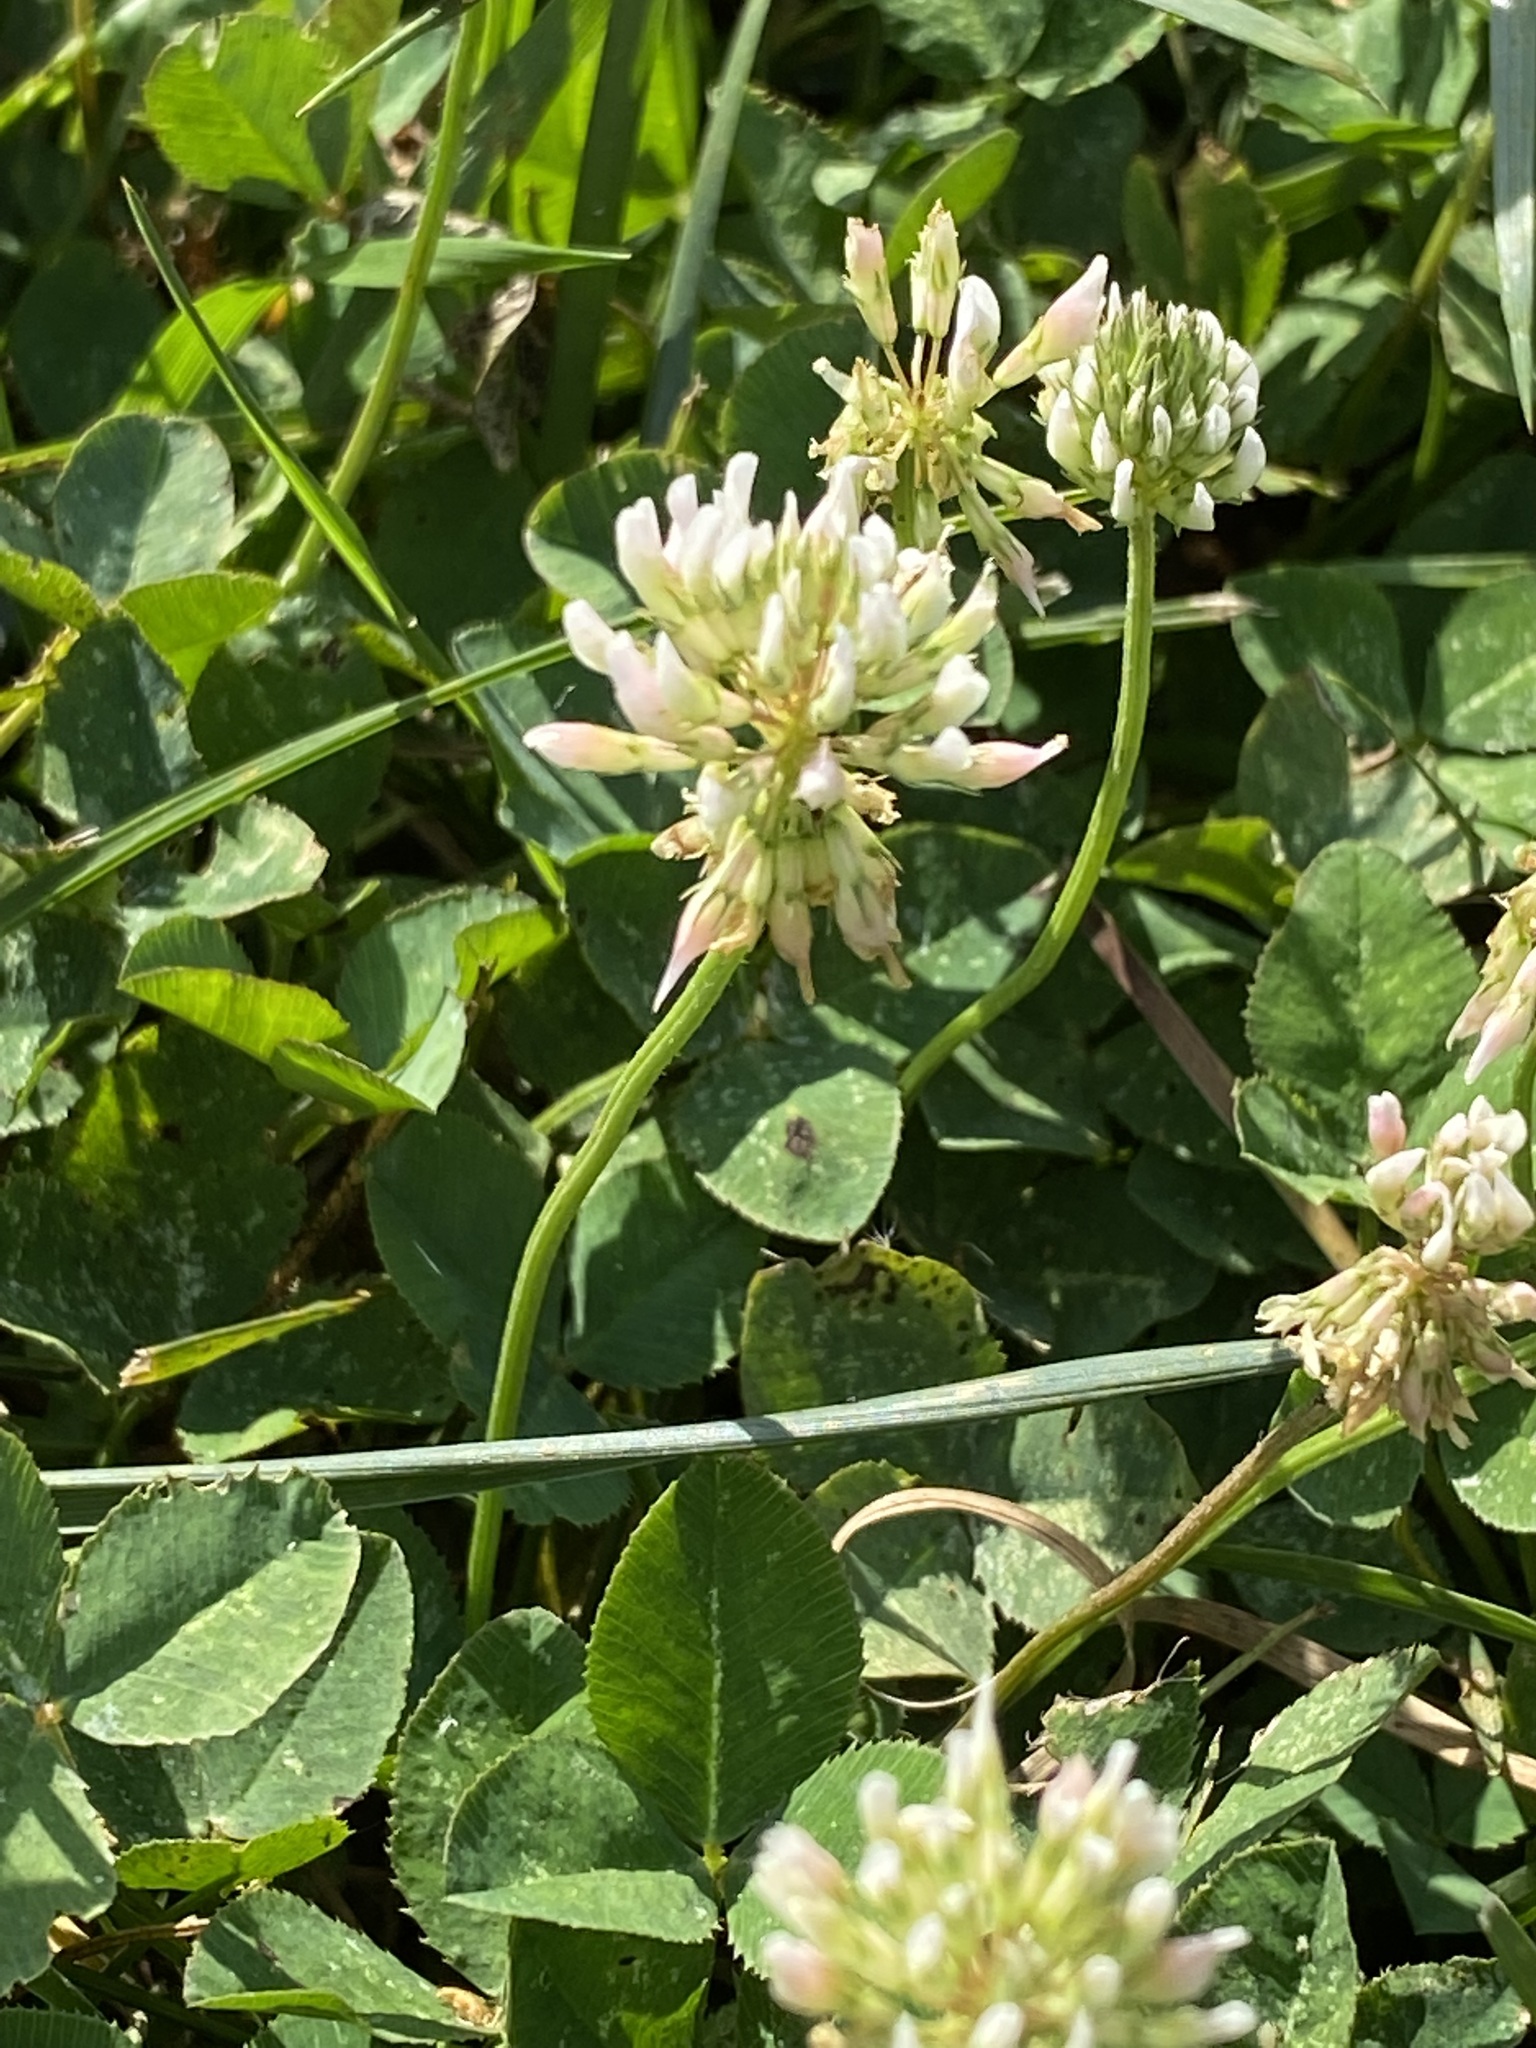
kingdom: Plantae
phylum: Tracheophyta
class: Magnoliopsida
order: Fabales
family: Fabaceae
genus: Trifolium
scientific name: Trifolium repens
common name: White clover
